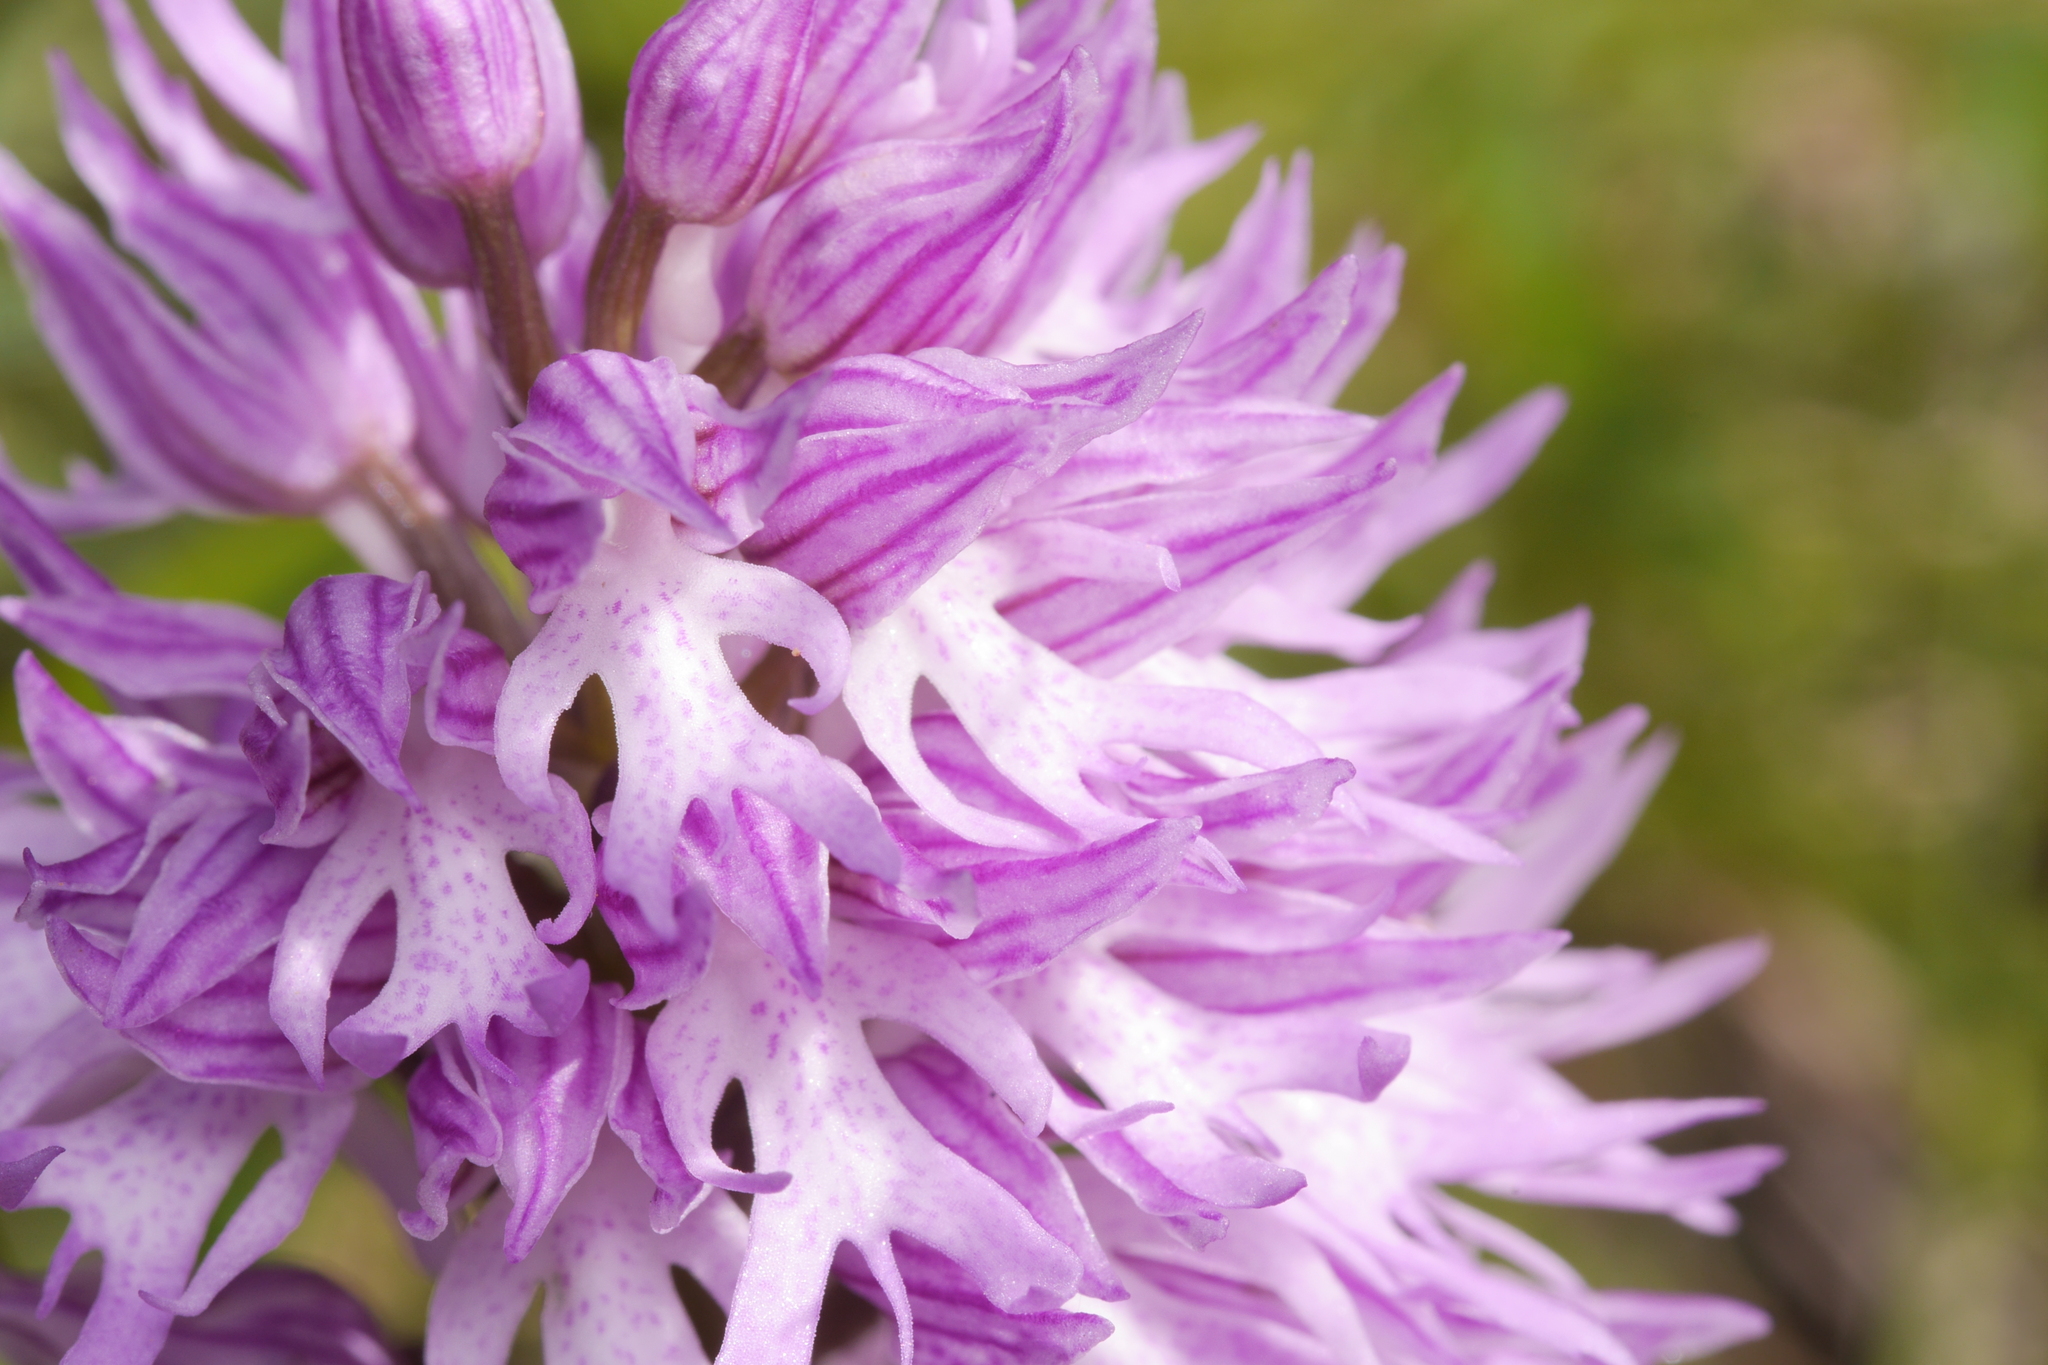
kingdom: Plantae
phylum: Tracheophyta
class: Liliopsida
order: Asparagales
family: Orchidaceae
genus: Orchis
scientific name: Orchis italica
